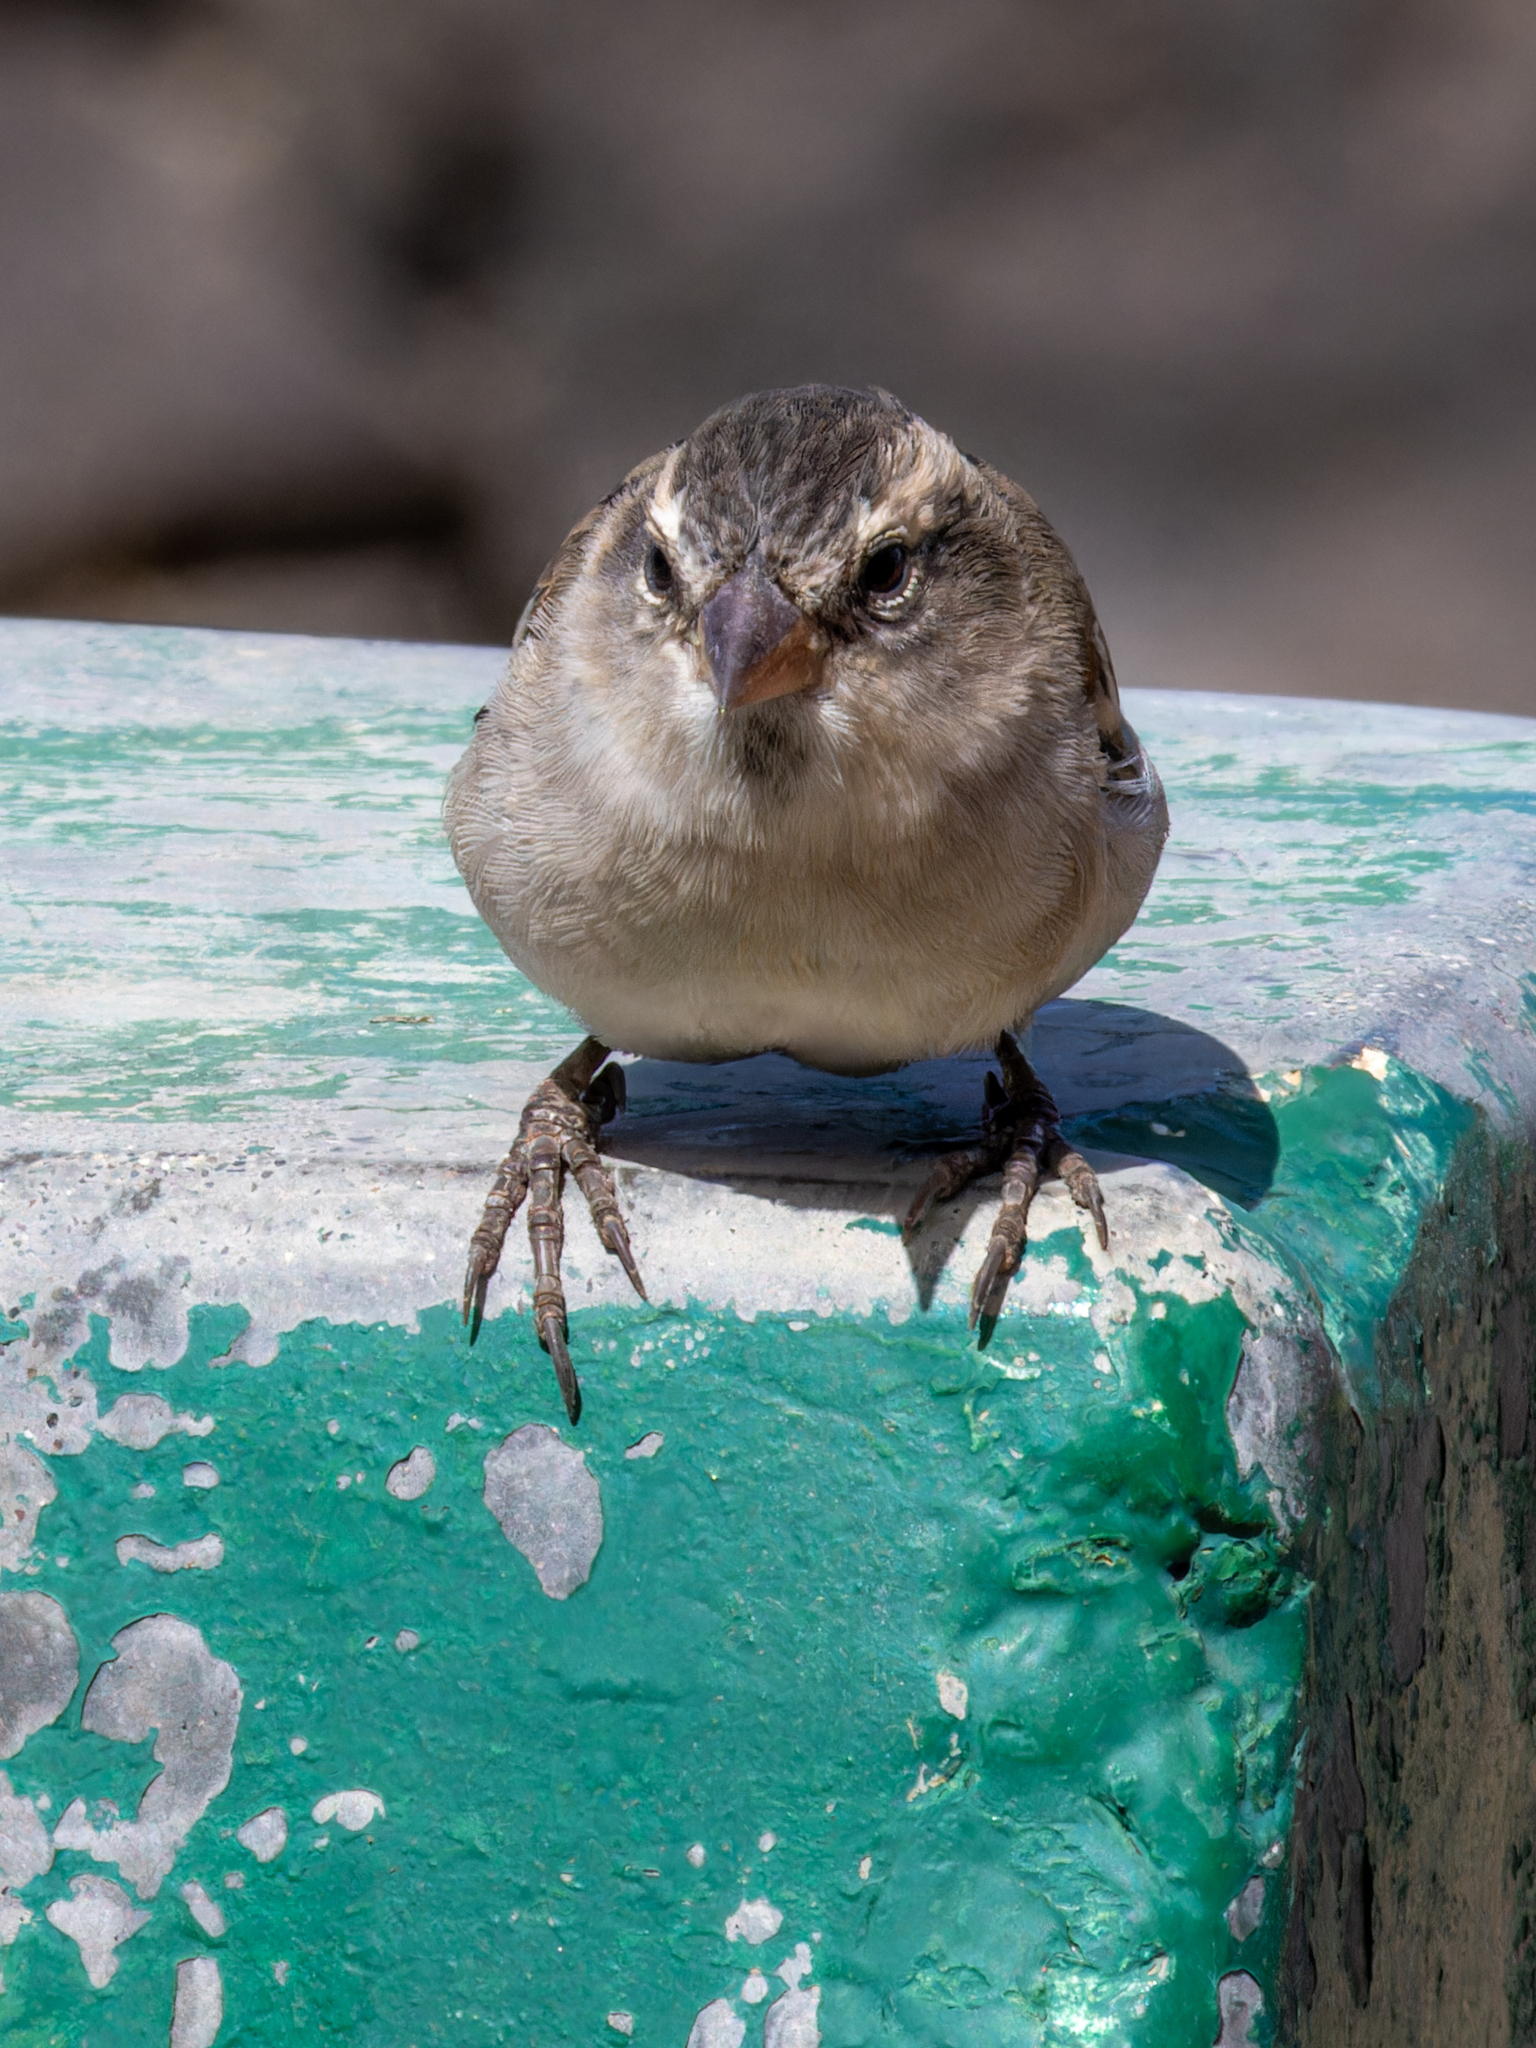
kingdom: Animalia
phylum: Chordata
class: Aves
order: Passeriformes
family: Passeridae
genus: Passer
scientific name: Passer iagoensis
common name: Iago sparrow
